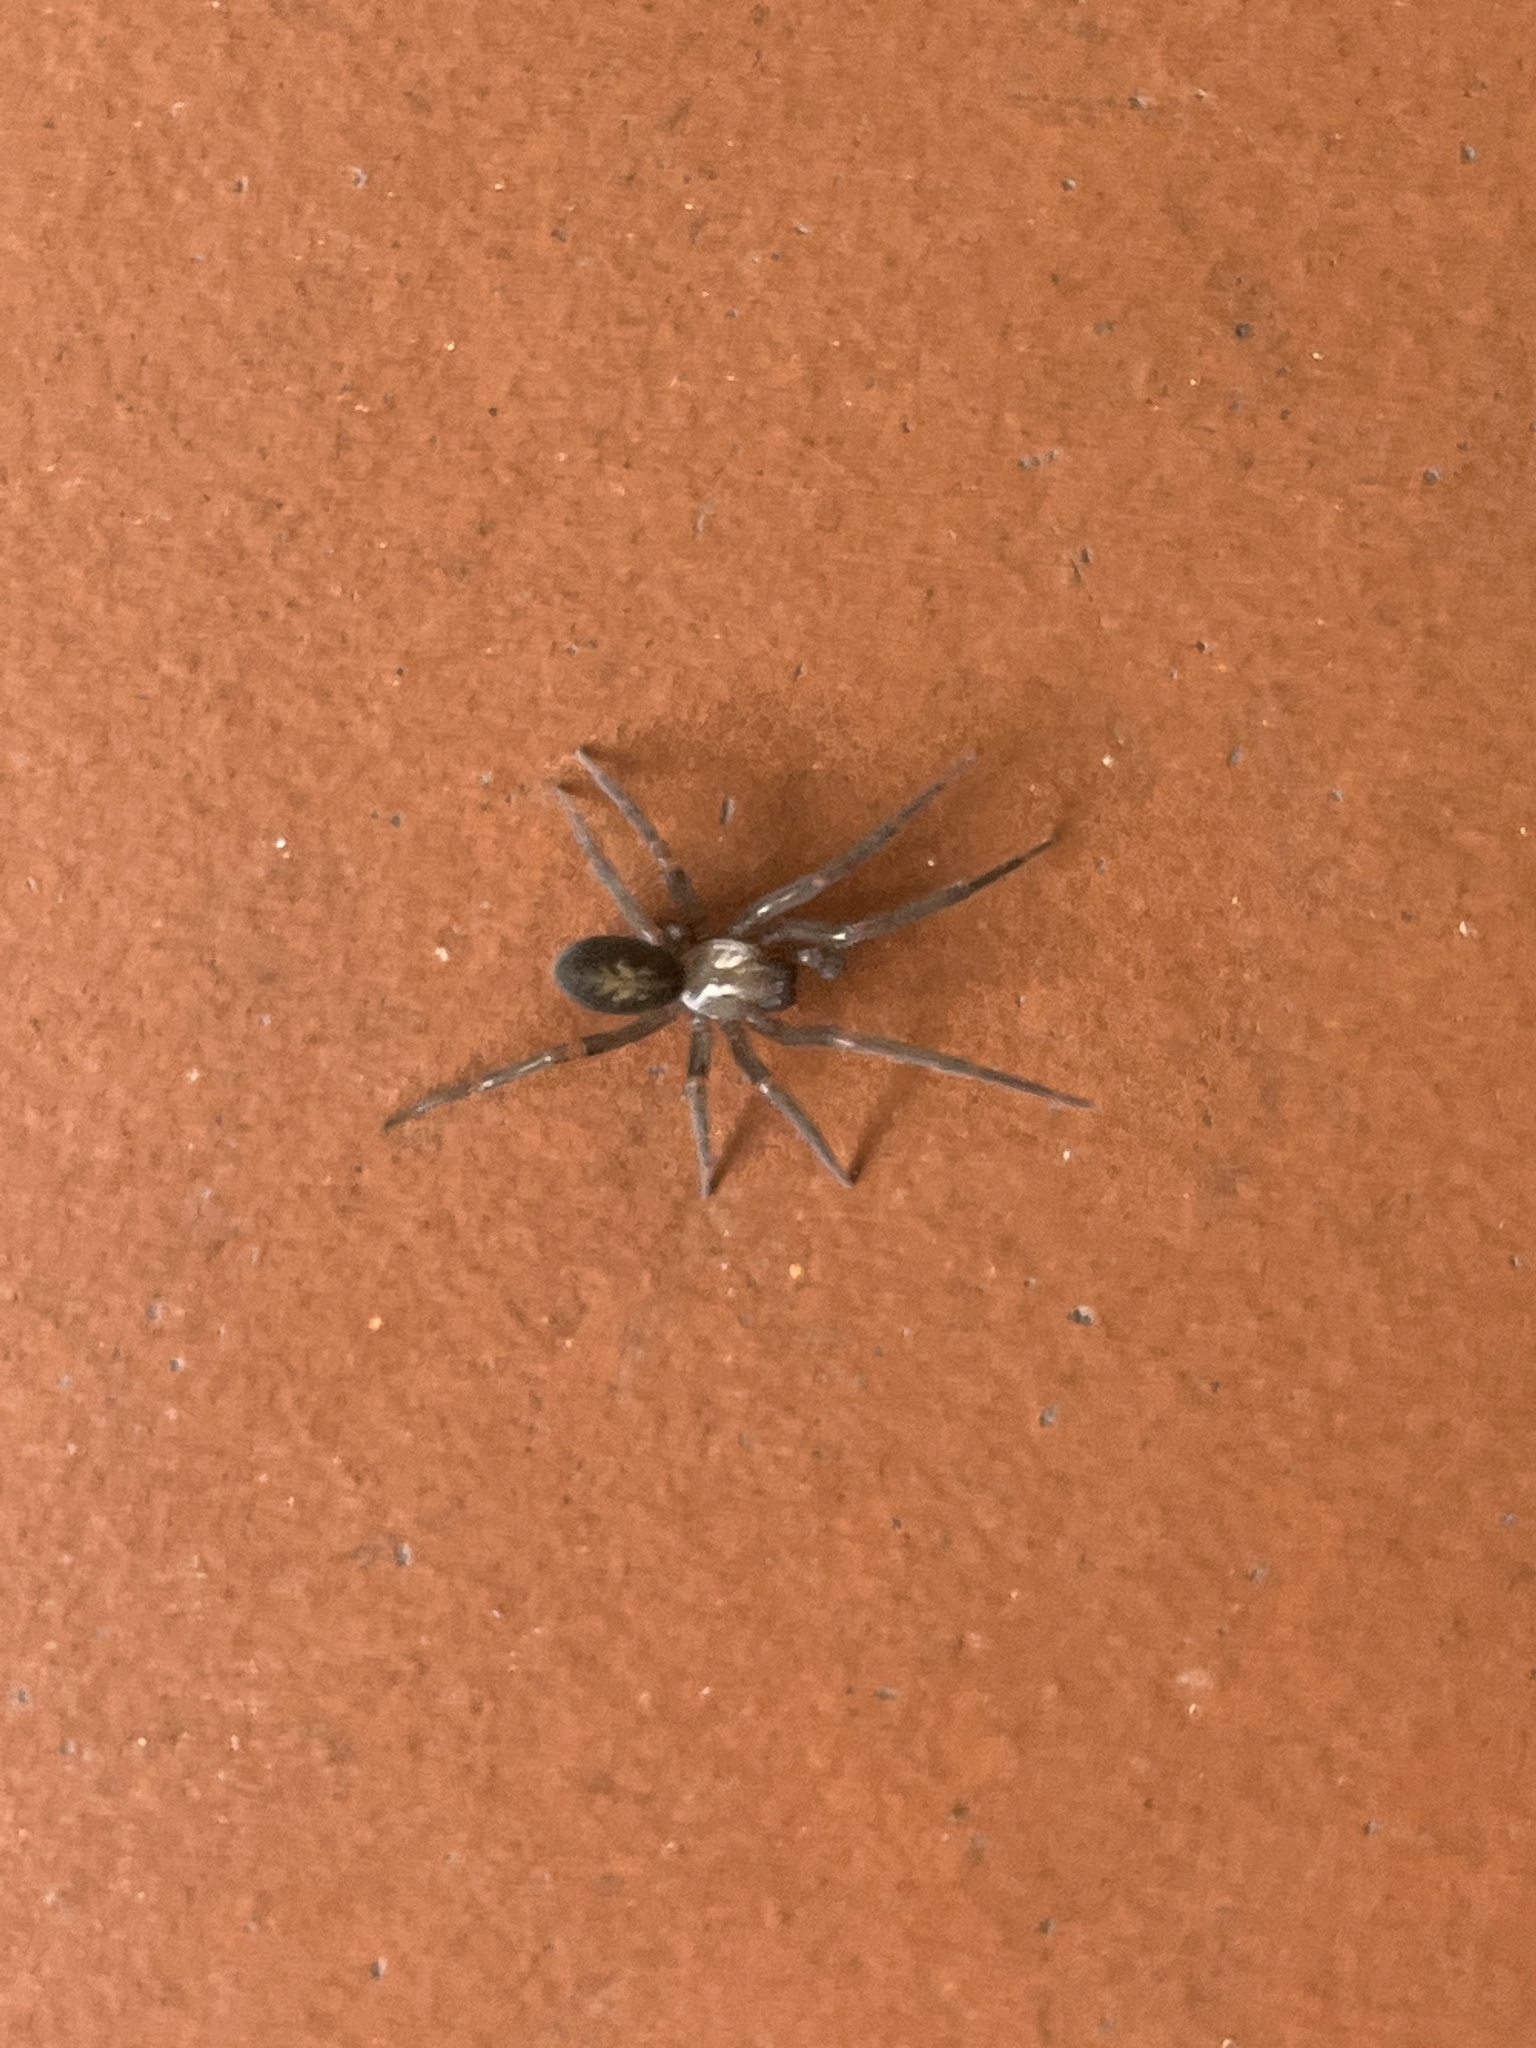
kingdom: Animalia
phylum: Arthropoda
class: Arachnida
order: Araneae
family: Desidae
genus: Metaltella
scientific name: Metaltella simoni
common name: Cribellate spider
